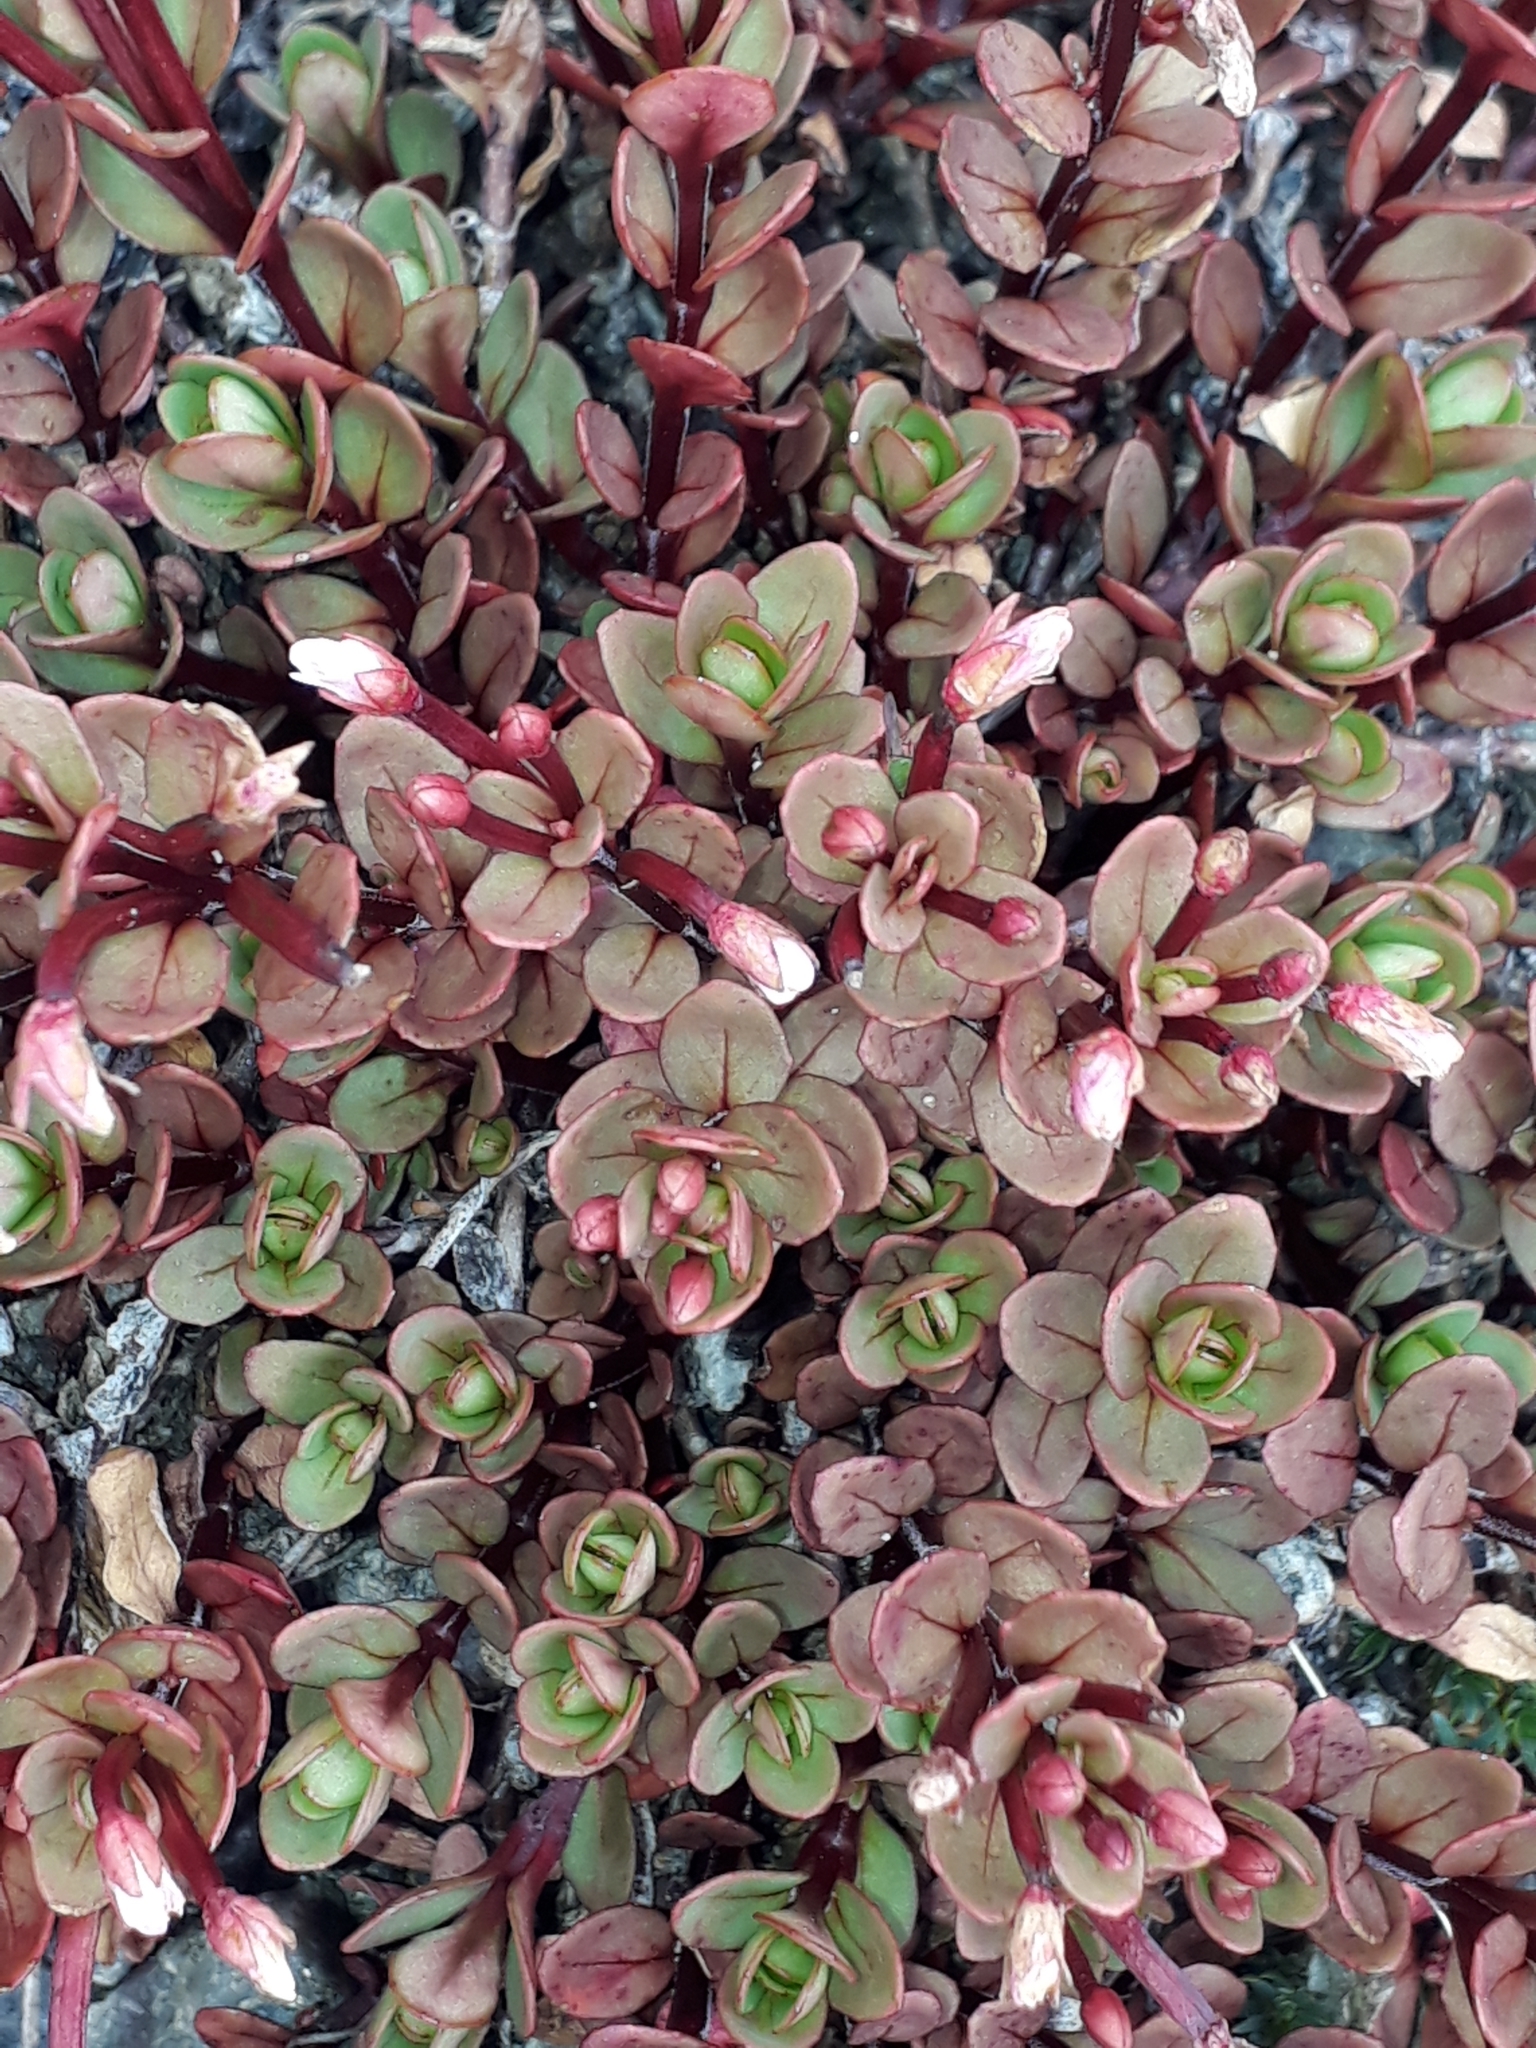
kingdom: Plantae
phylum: Tracheophyta
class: Magnoliopsida
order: Myrtales
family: Onagraceae
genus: Epilobium
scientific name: Epilobium porphyrium
